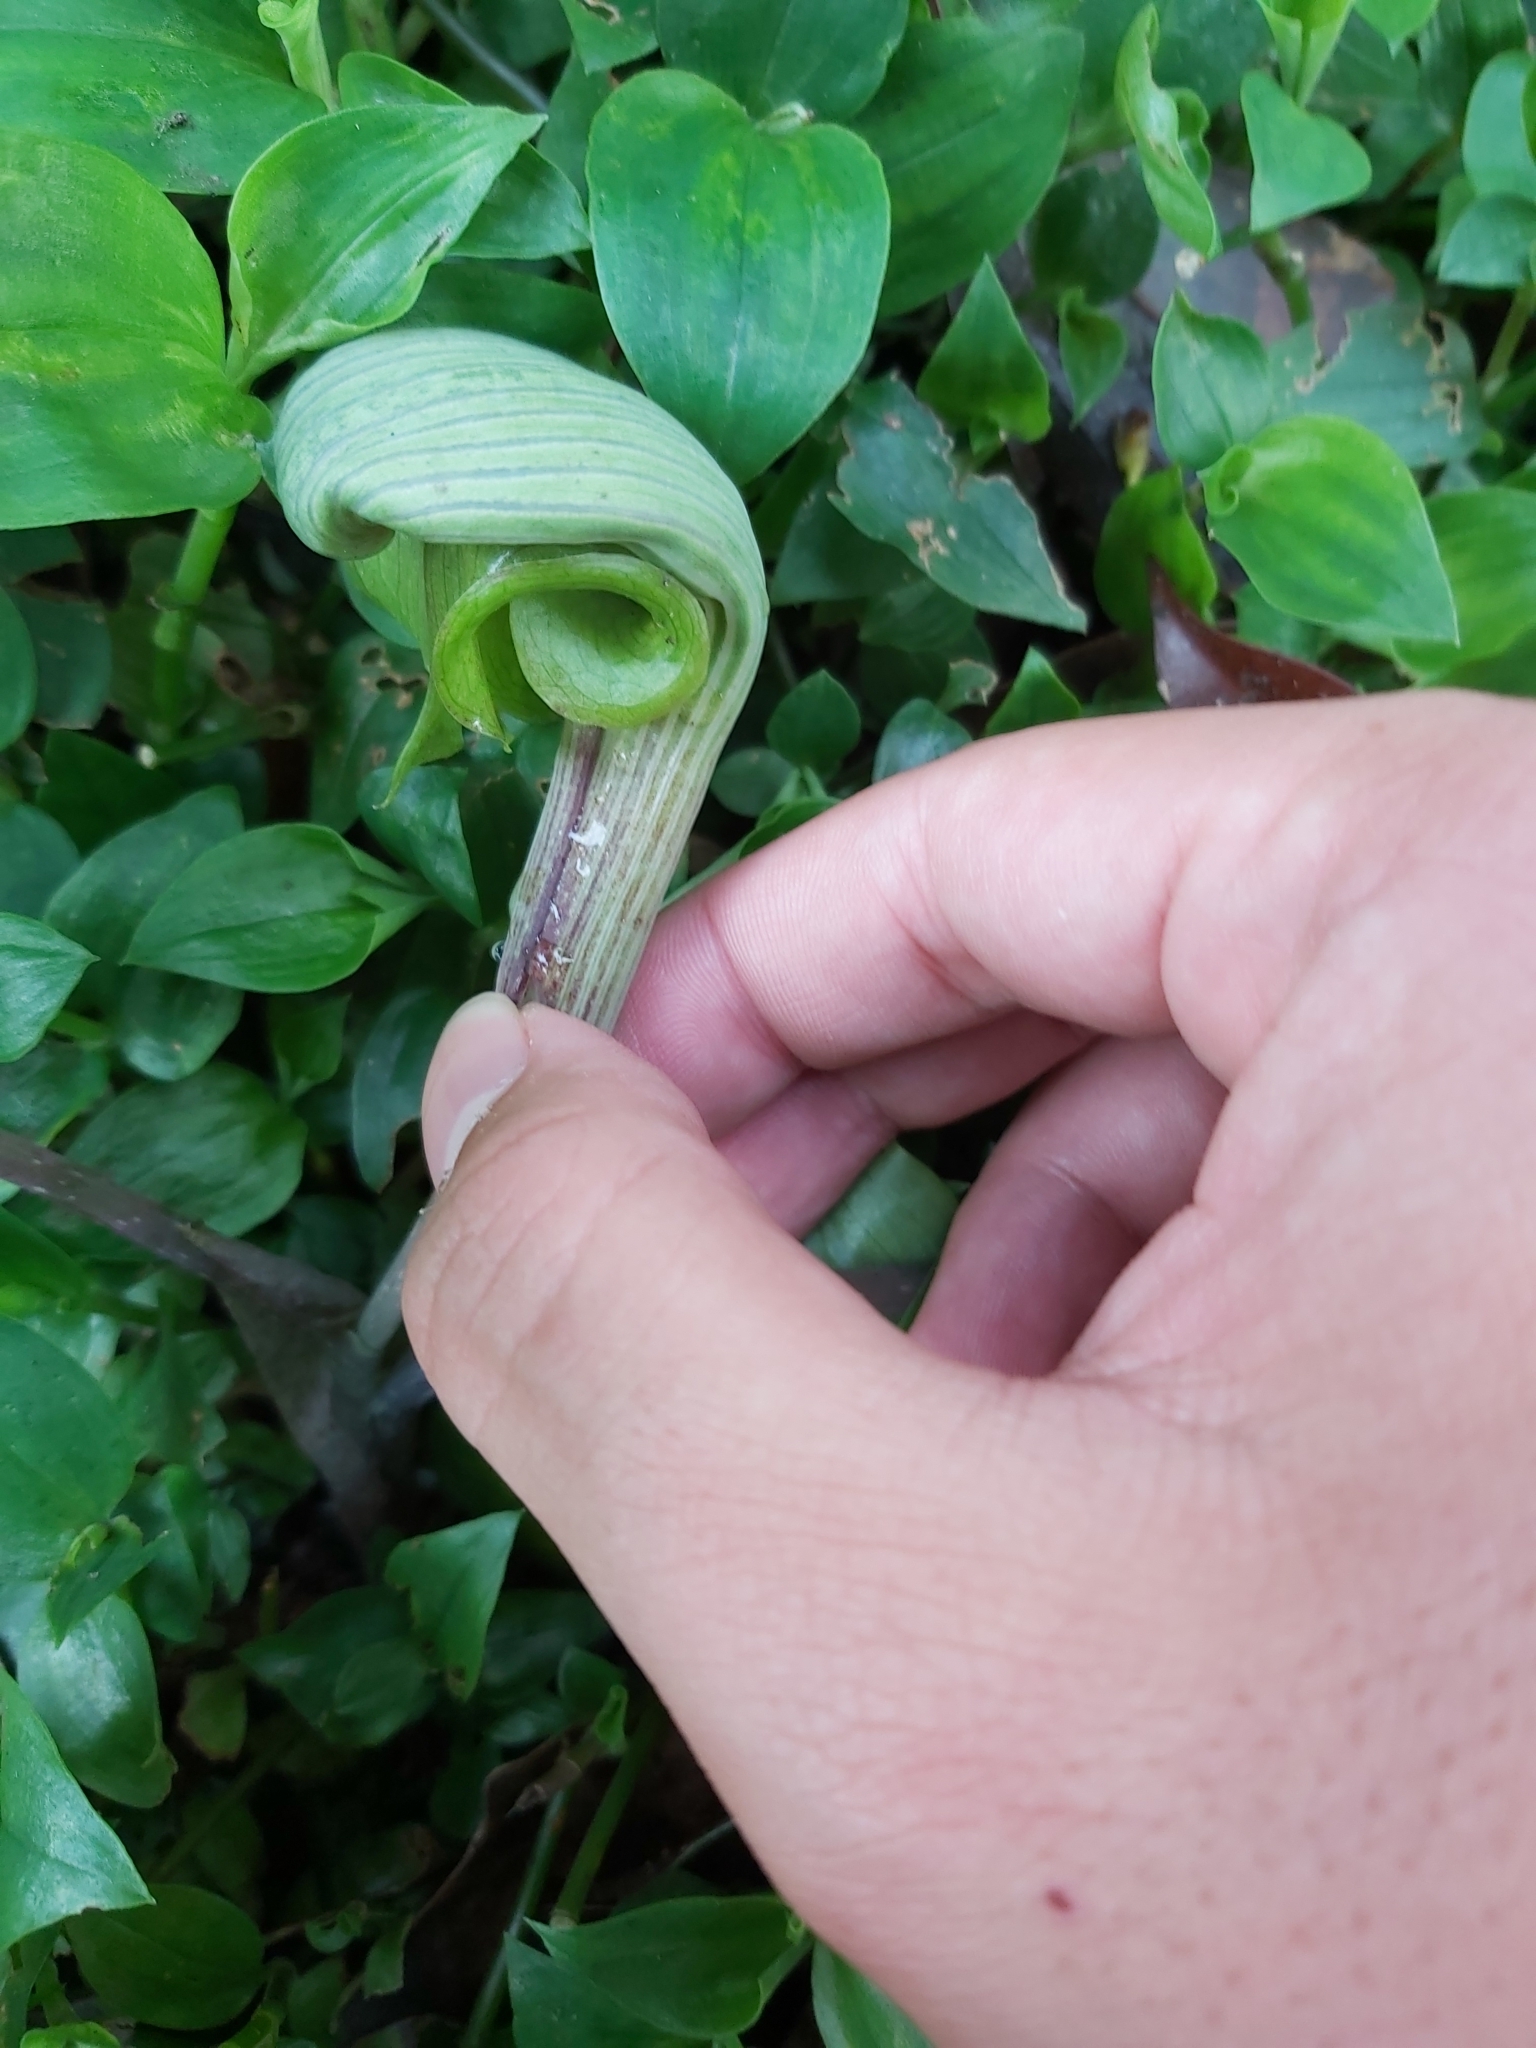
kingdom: Plantae
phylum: Tracheophyta
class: Liliopsida
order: Alismatales
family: Araceae
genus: Arisaema
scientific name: Arisaema ringens
